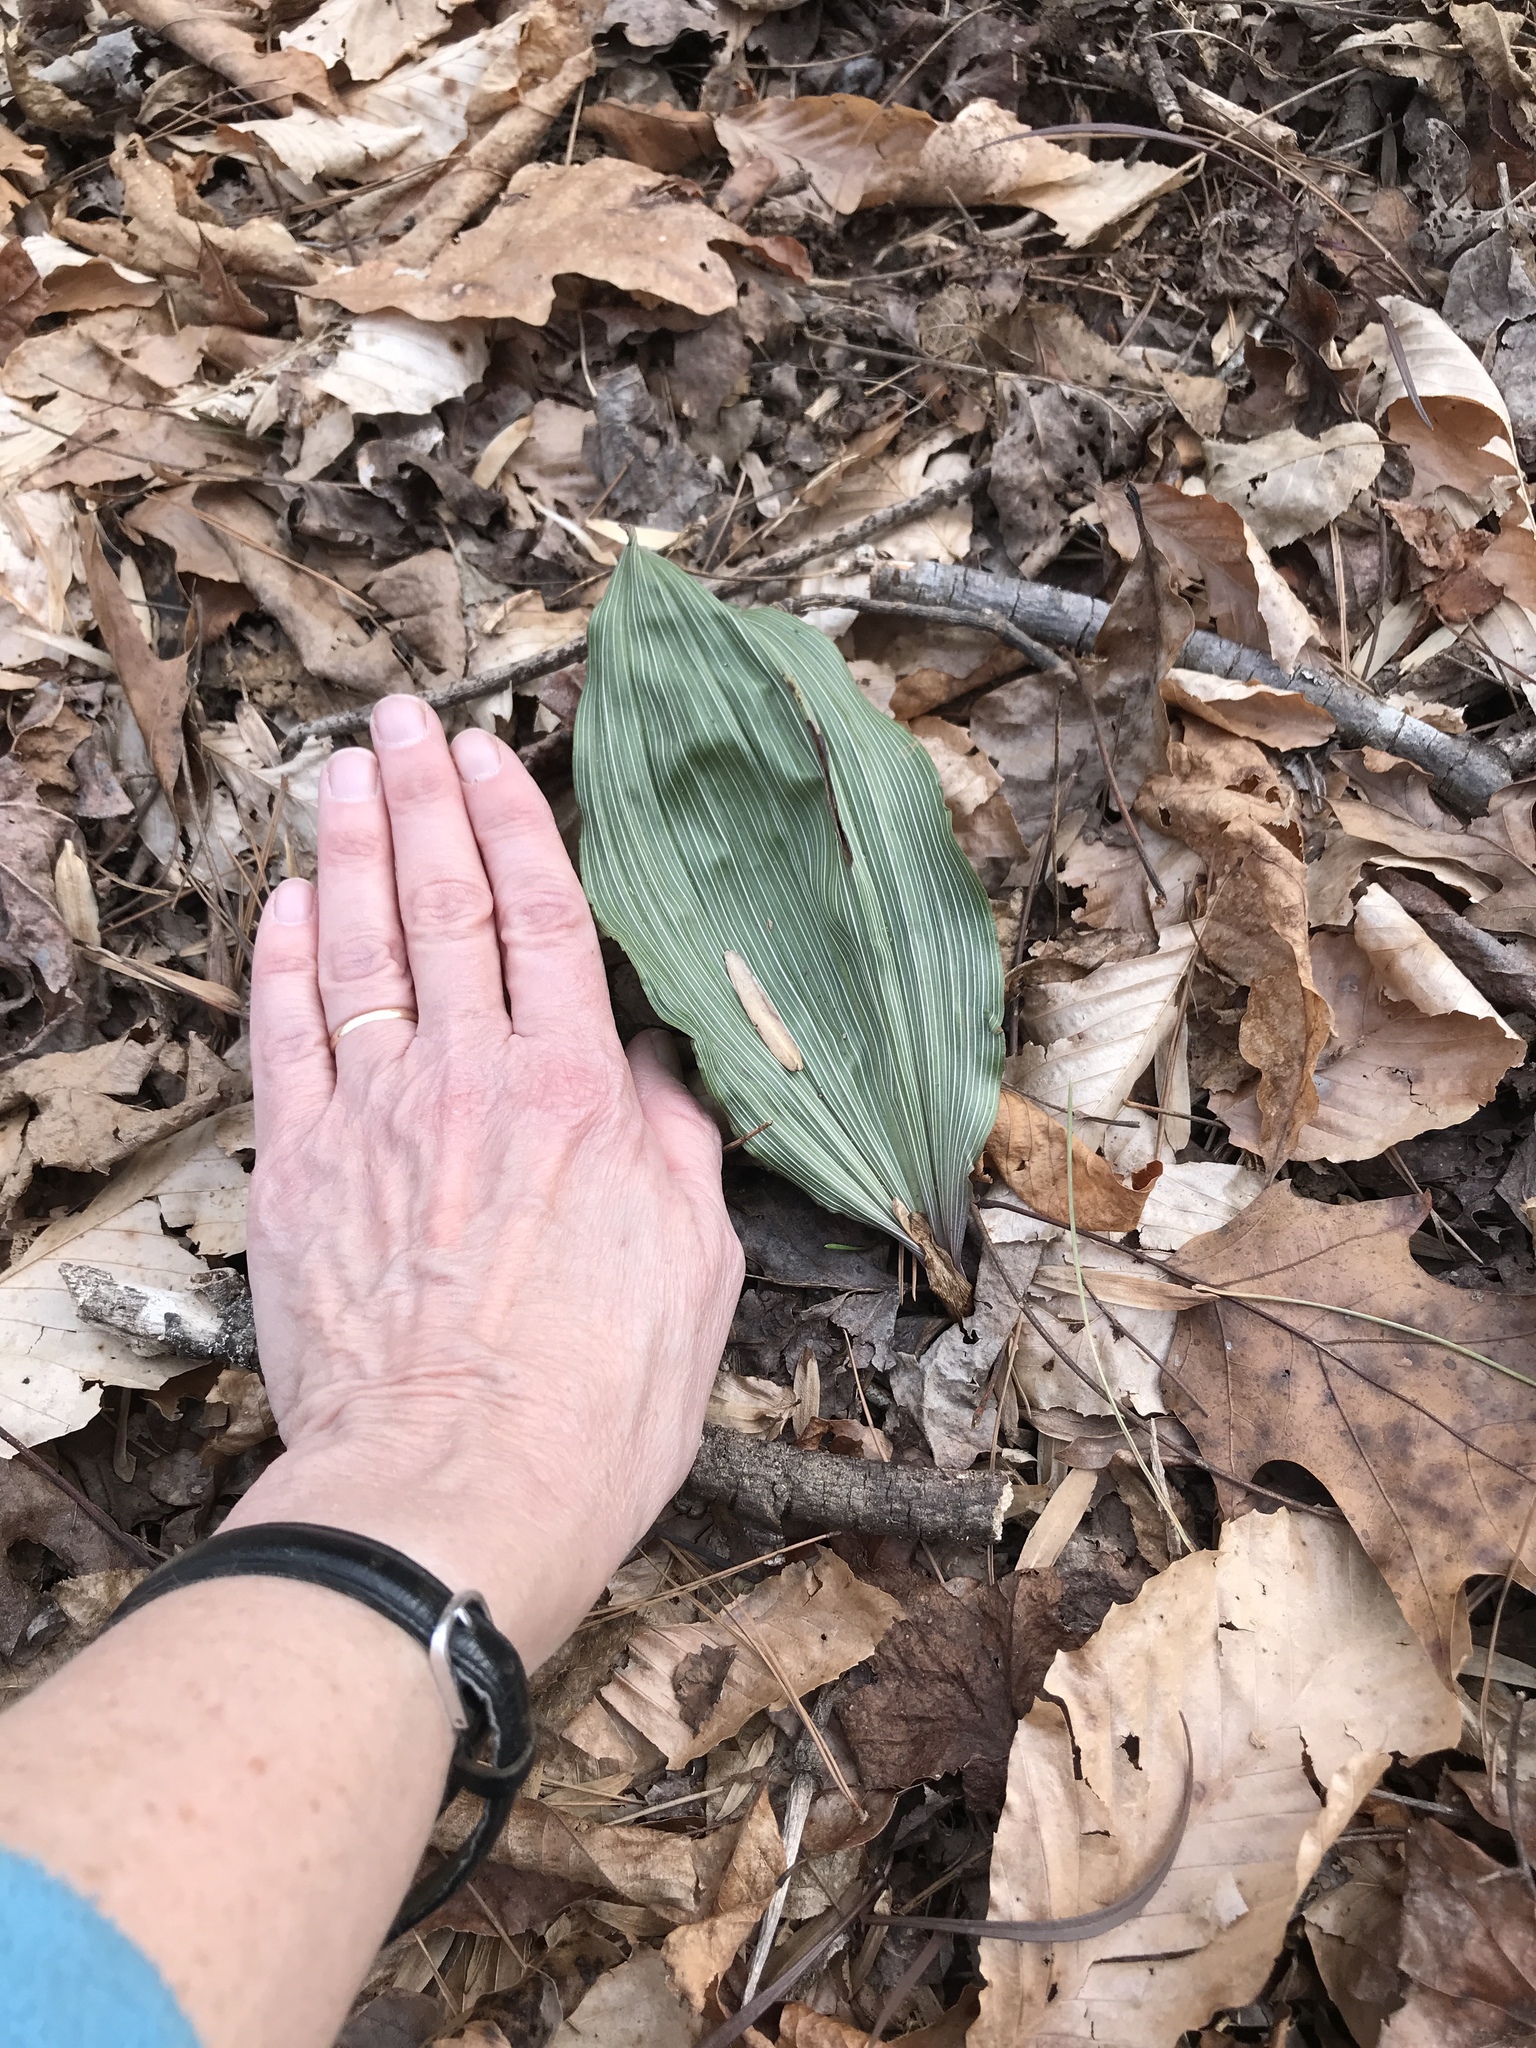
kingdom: Plantae
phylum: Tracheophyta
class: Liliopsida
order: Asparagales
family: Orchidaceae
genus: Aplectrum
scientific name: Aplectrum hyemale
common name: Adam-and-eve
